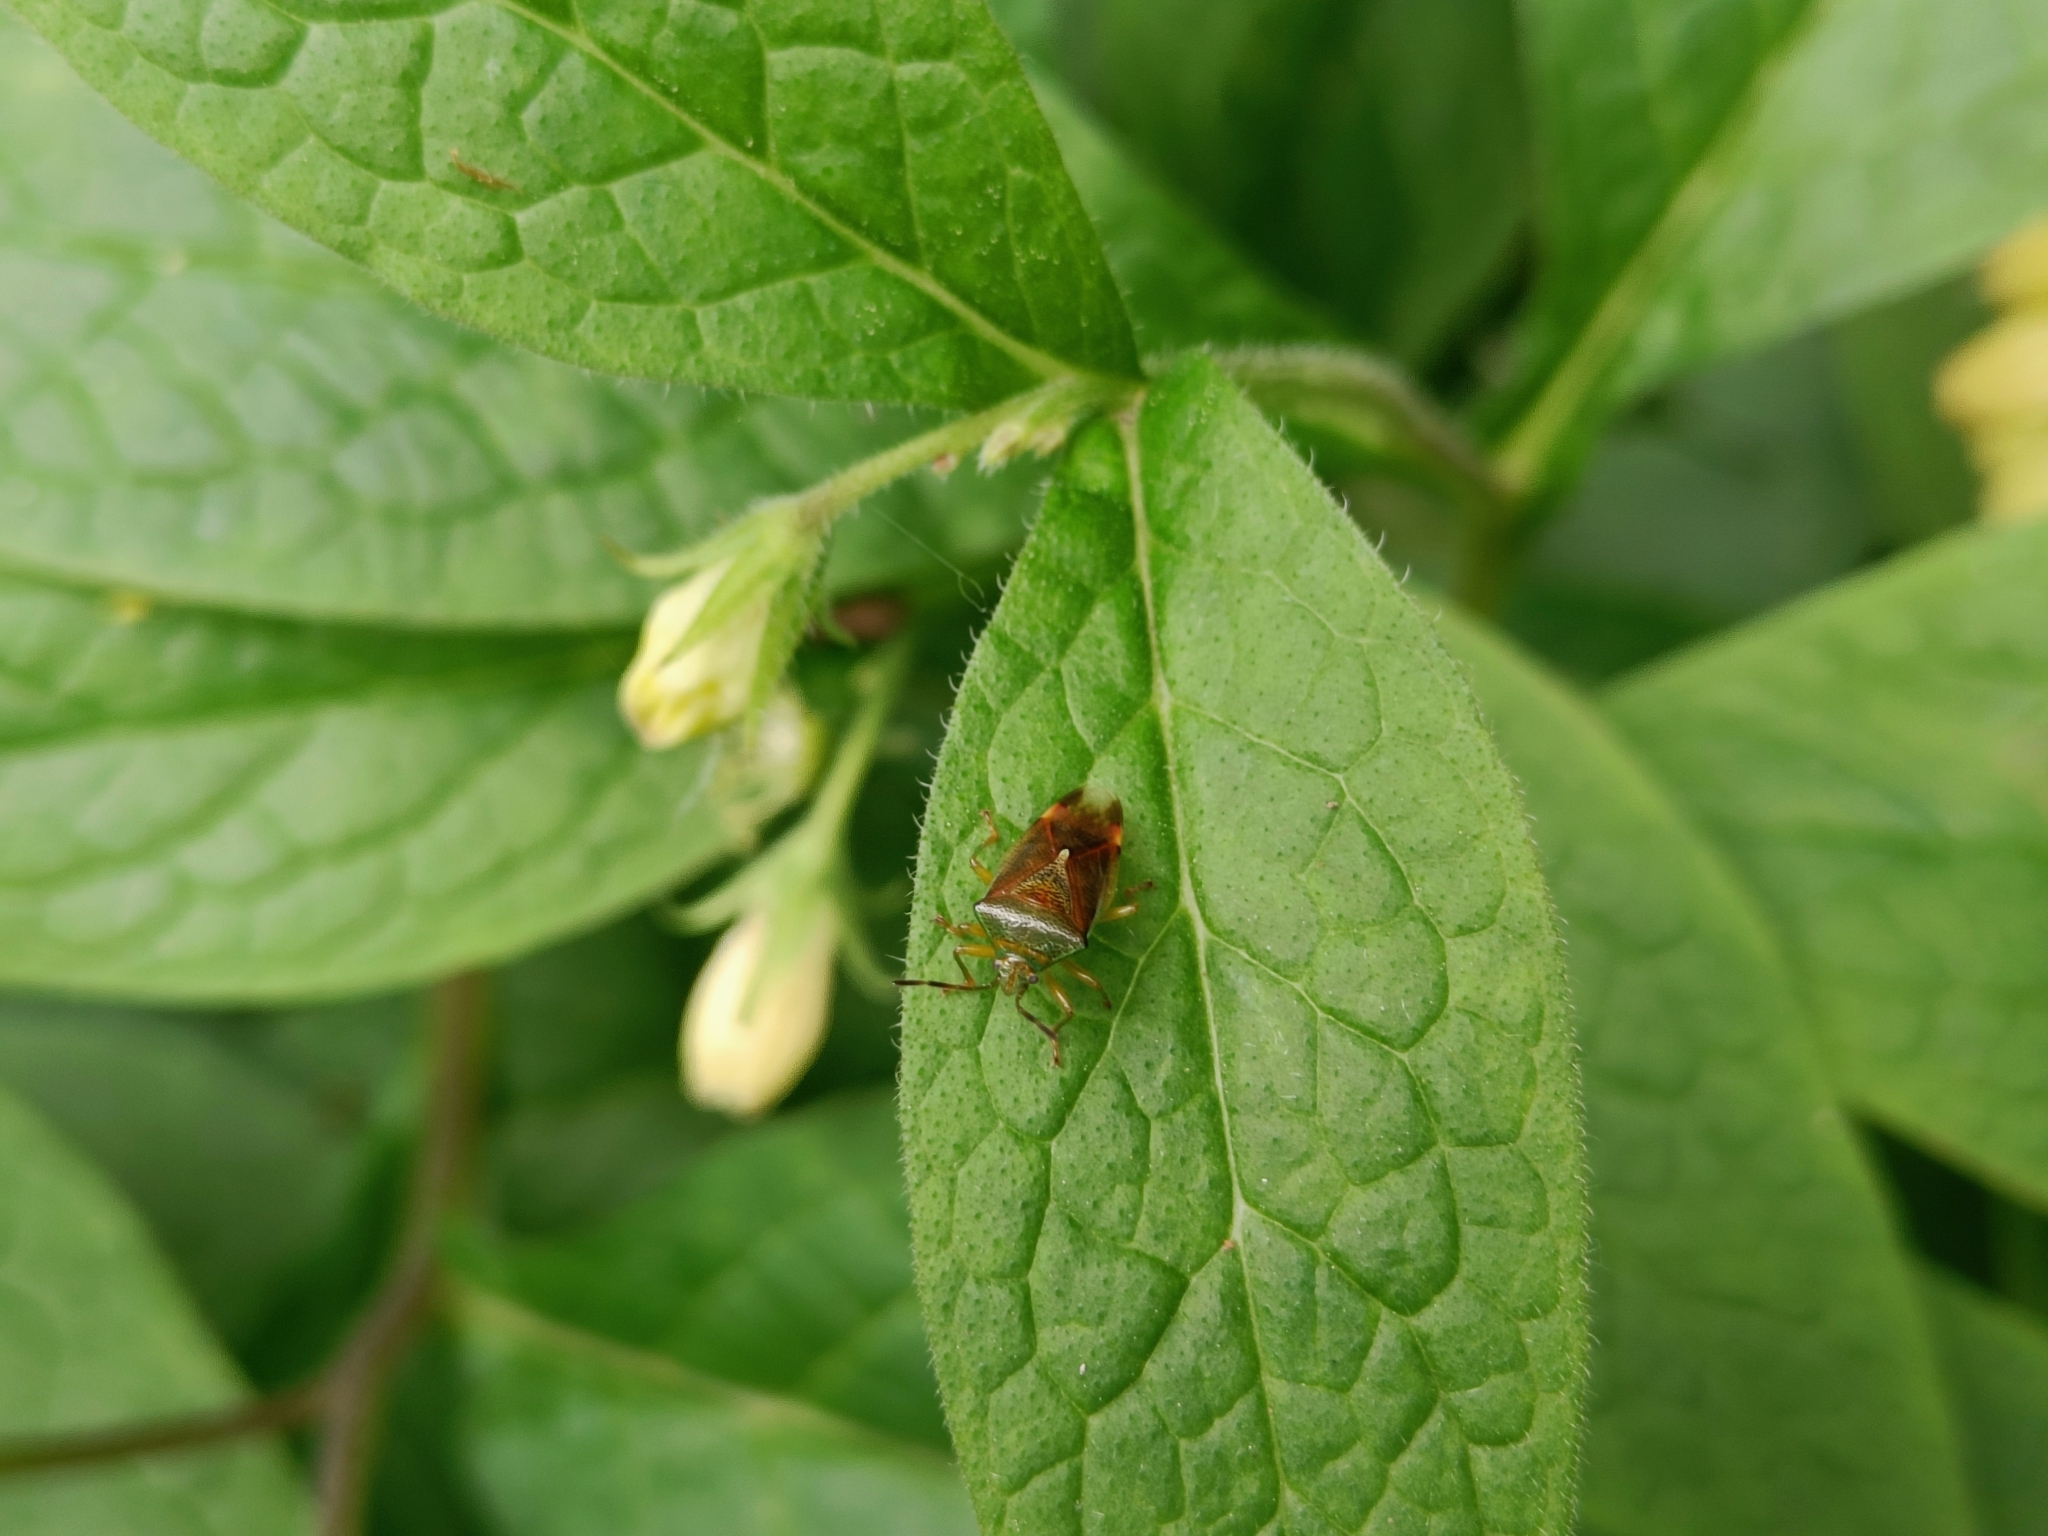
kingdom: Animalia
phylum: Arthropoda
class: Insecta
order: Hemiptera
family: Acanthosomatidae
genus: Elasmostethus
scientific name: Elasmostethus interstinctus
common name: Birch shieldbug
